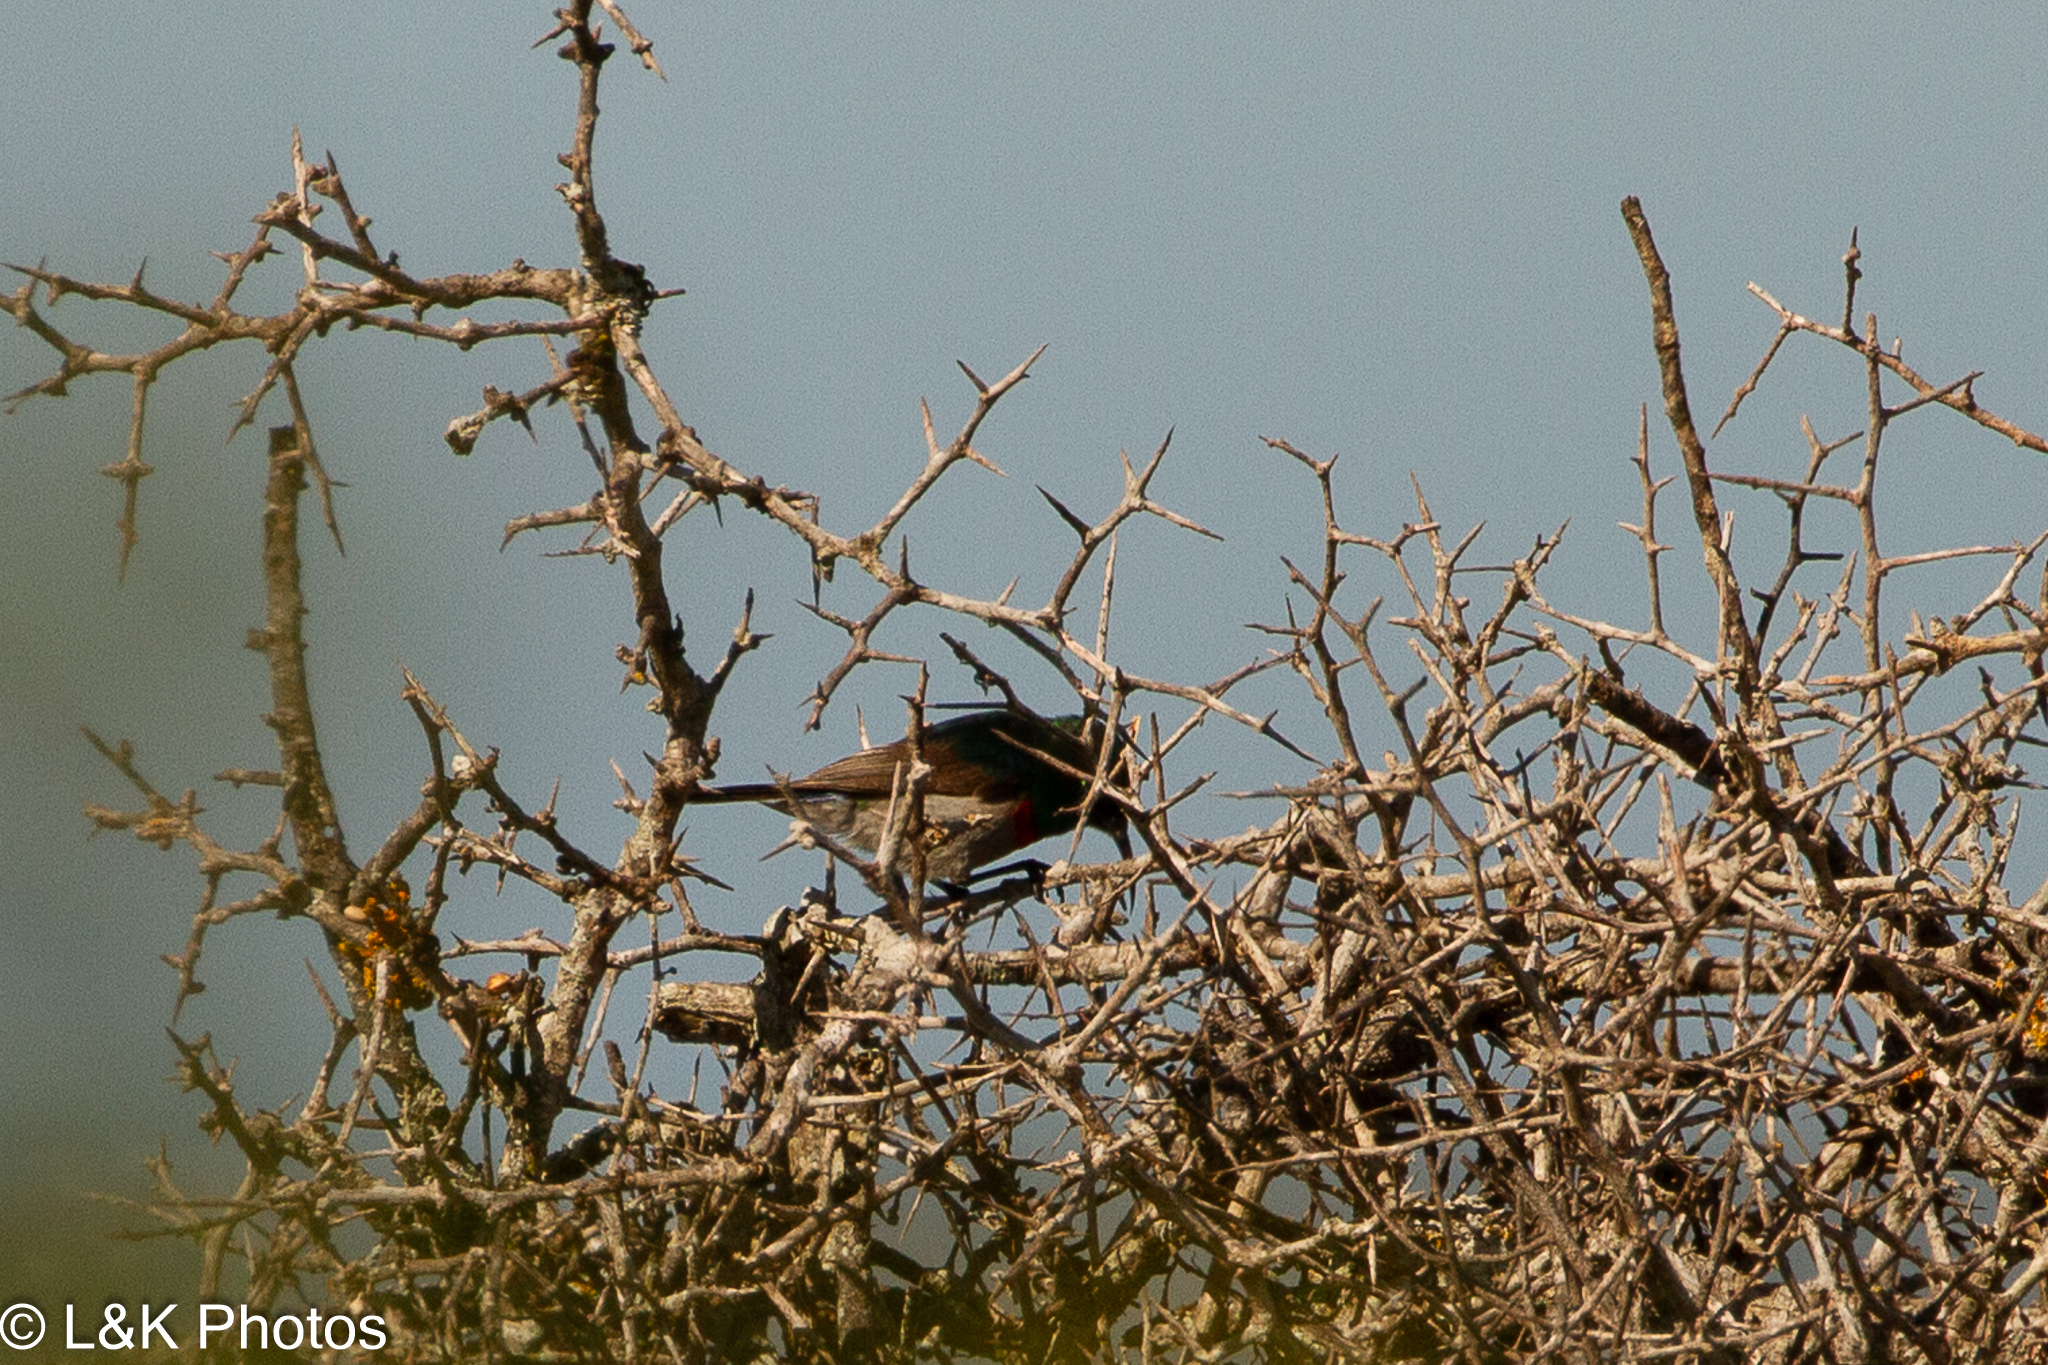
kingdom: Animalia
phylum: Chordata
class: Aves
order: Passeriformes
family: Nectariniidae
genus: Cinnyris
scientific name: Cinnyris chalybeus
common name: Southern double-collared sunbird
